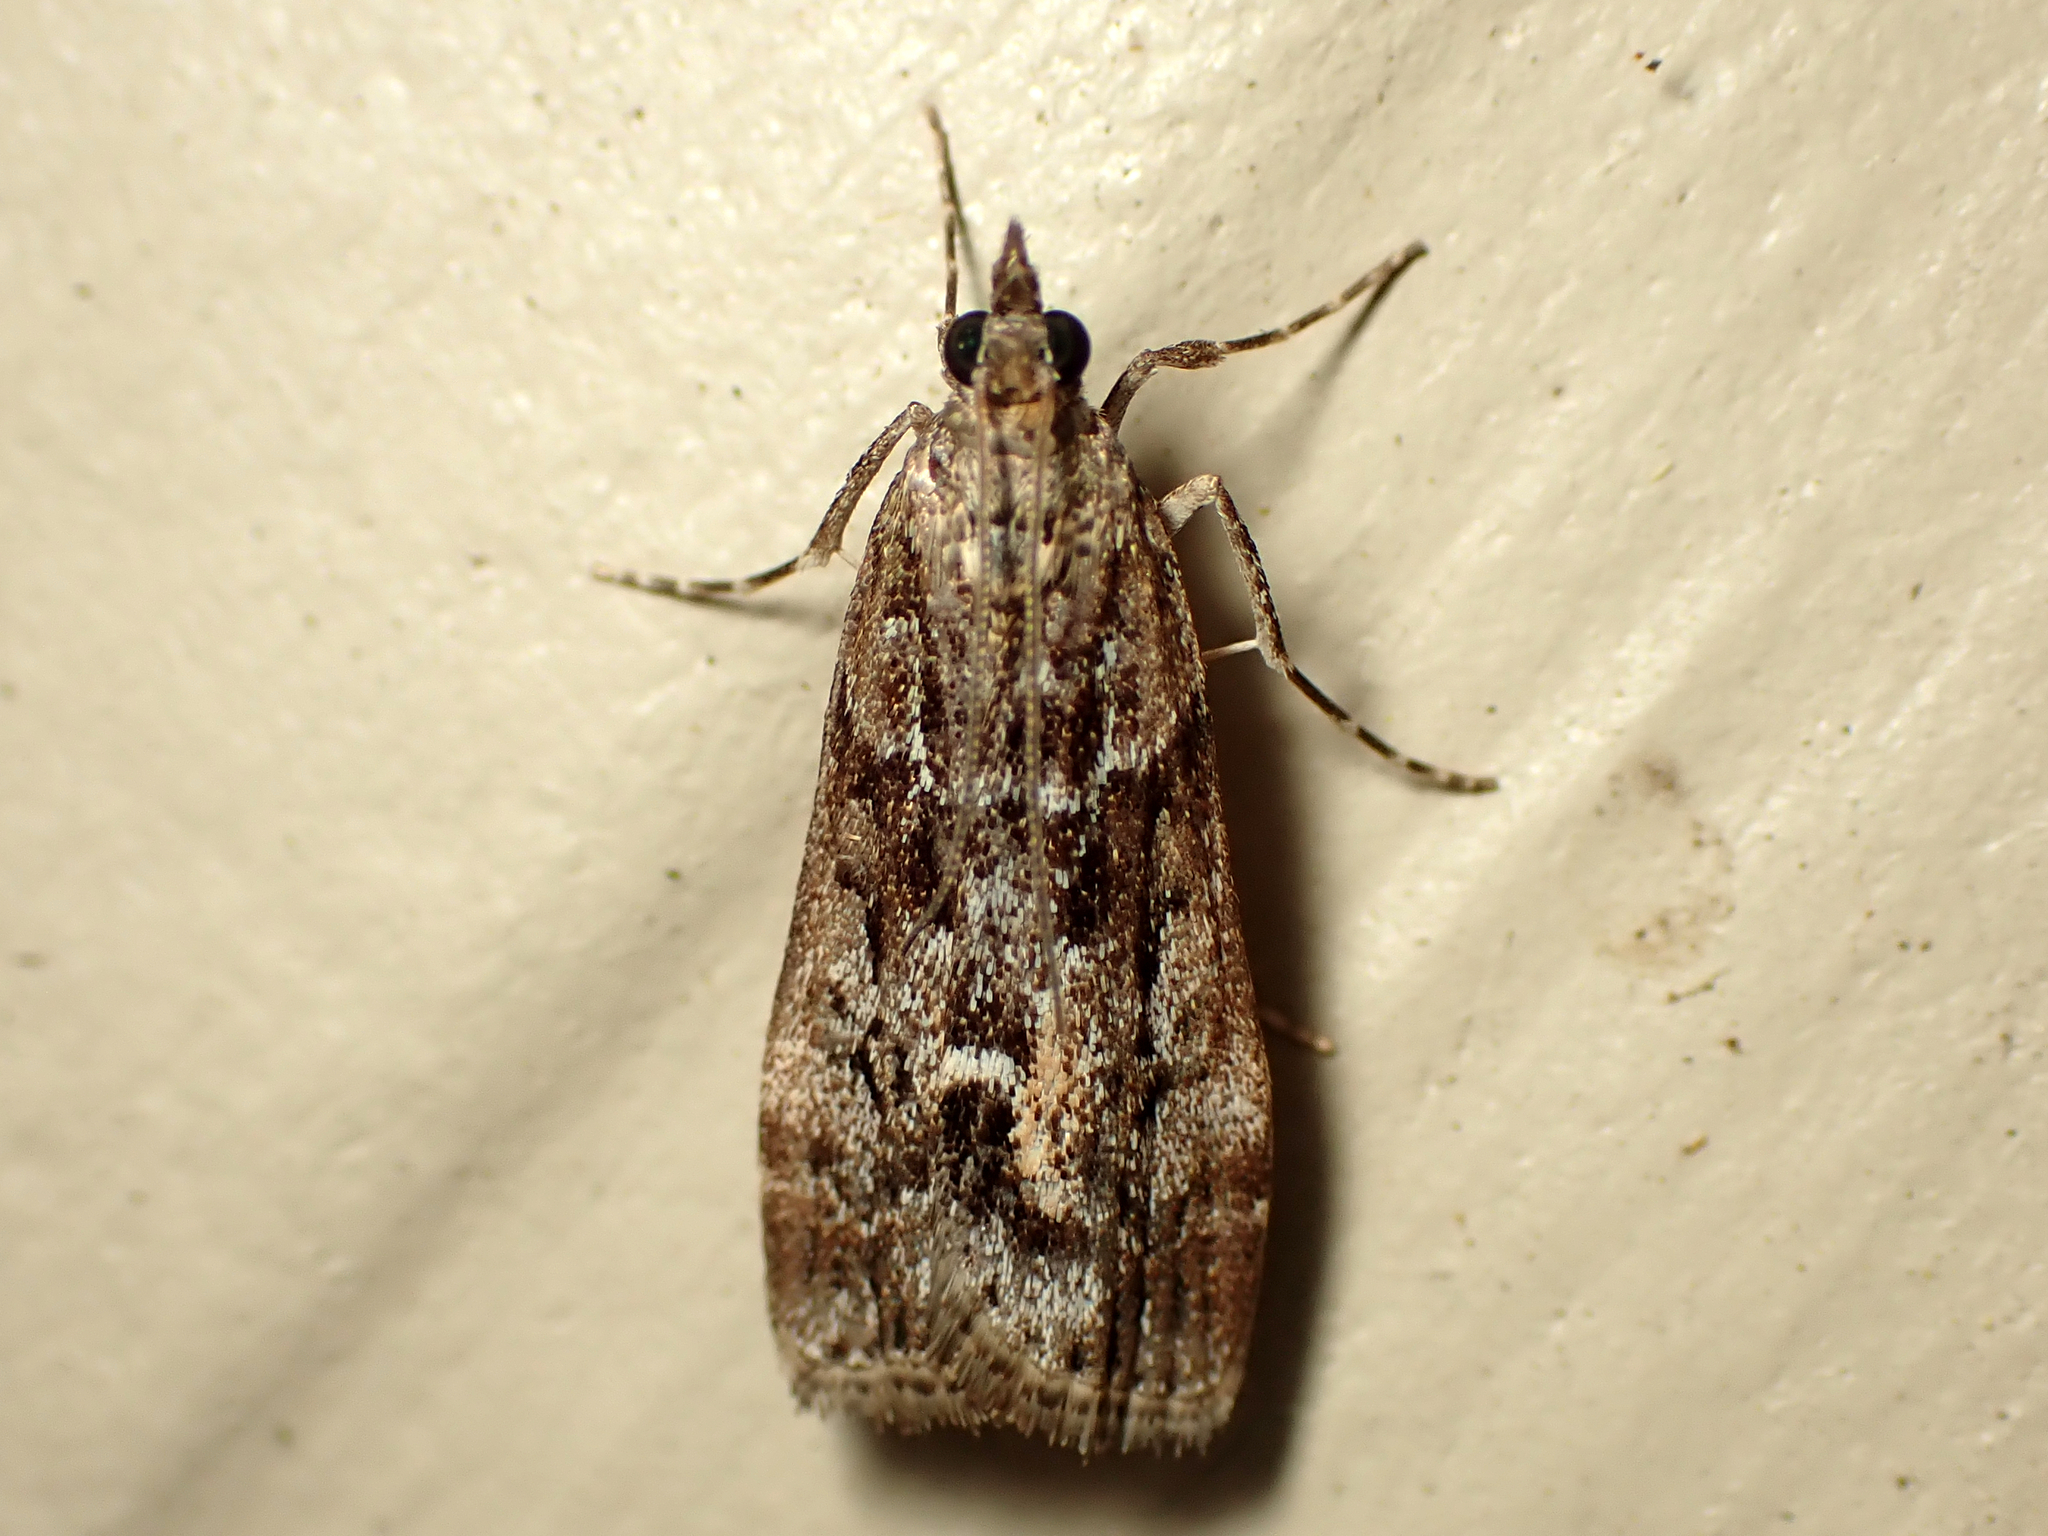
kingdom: Animalia
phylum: Arthropoda
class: Insecta
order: Lepidoptera
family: Crambidae
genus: Eudonia
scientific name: Eudonia submarginalis
